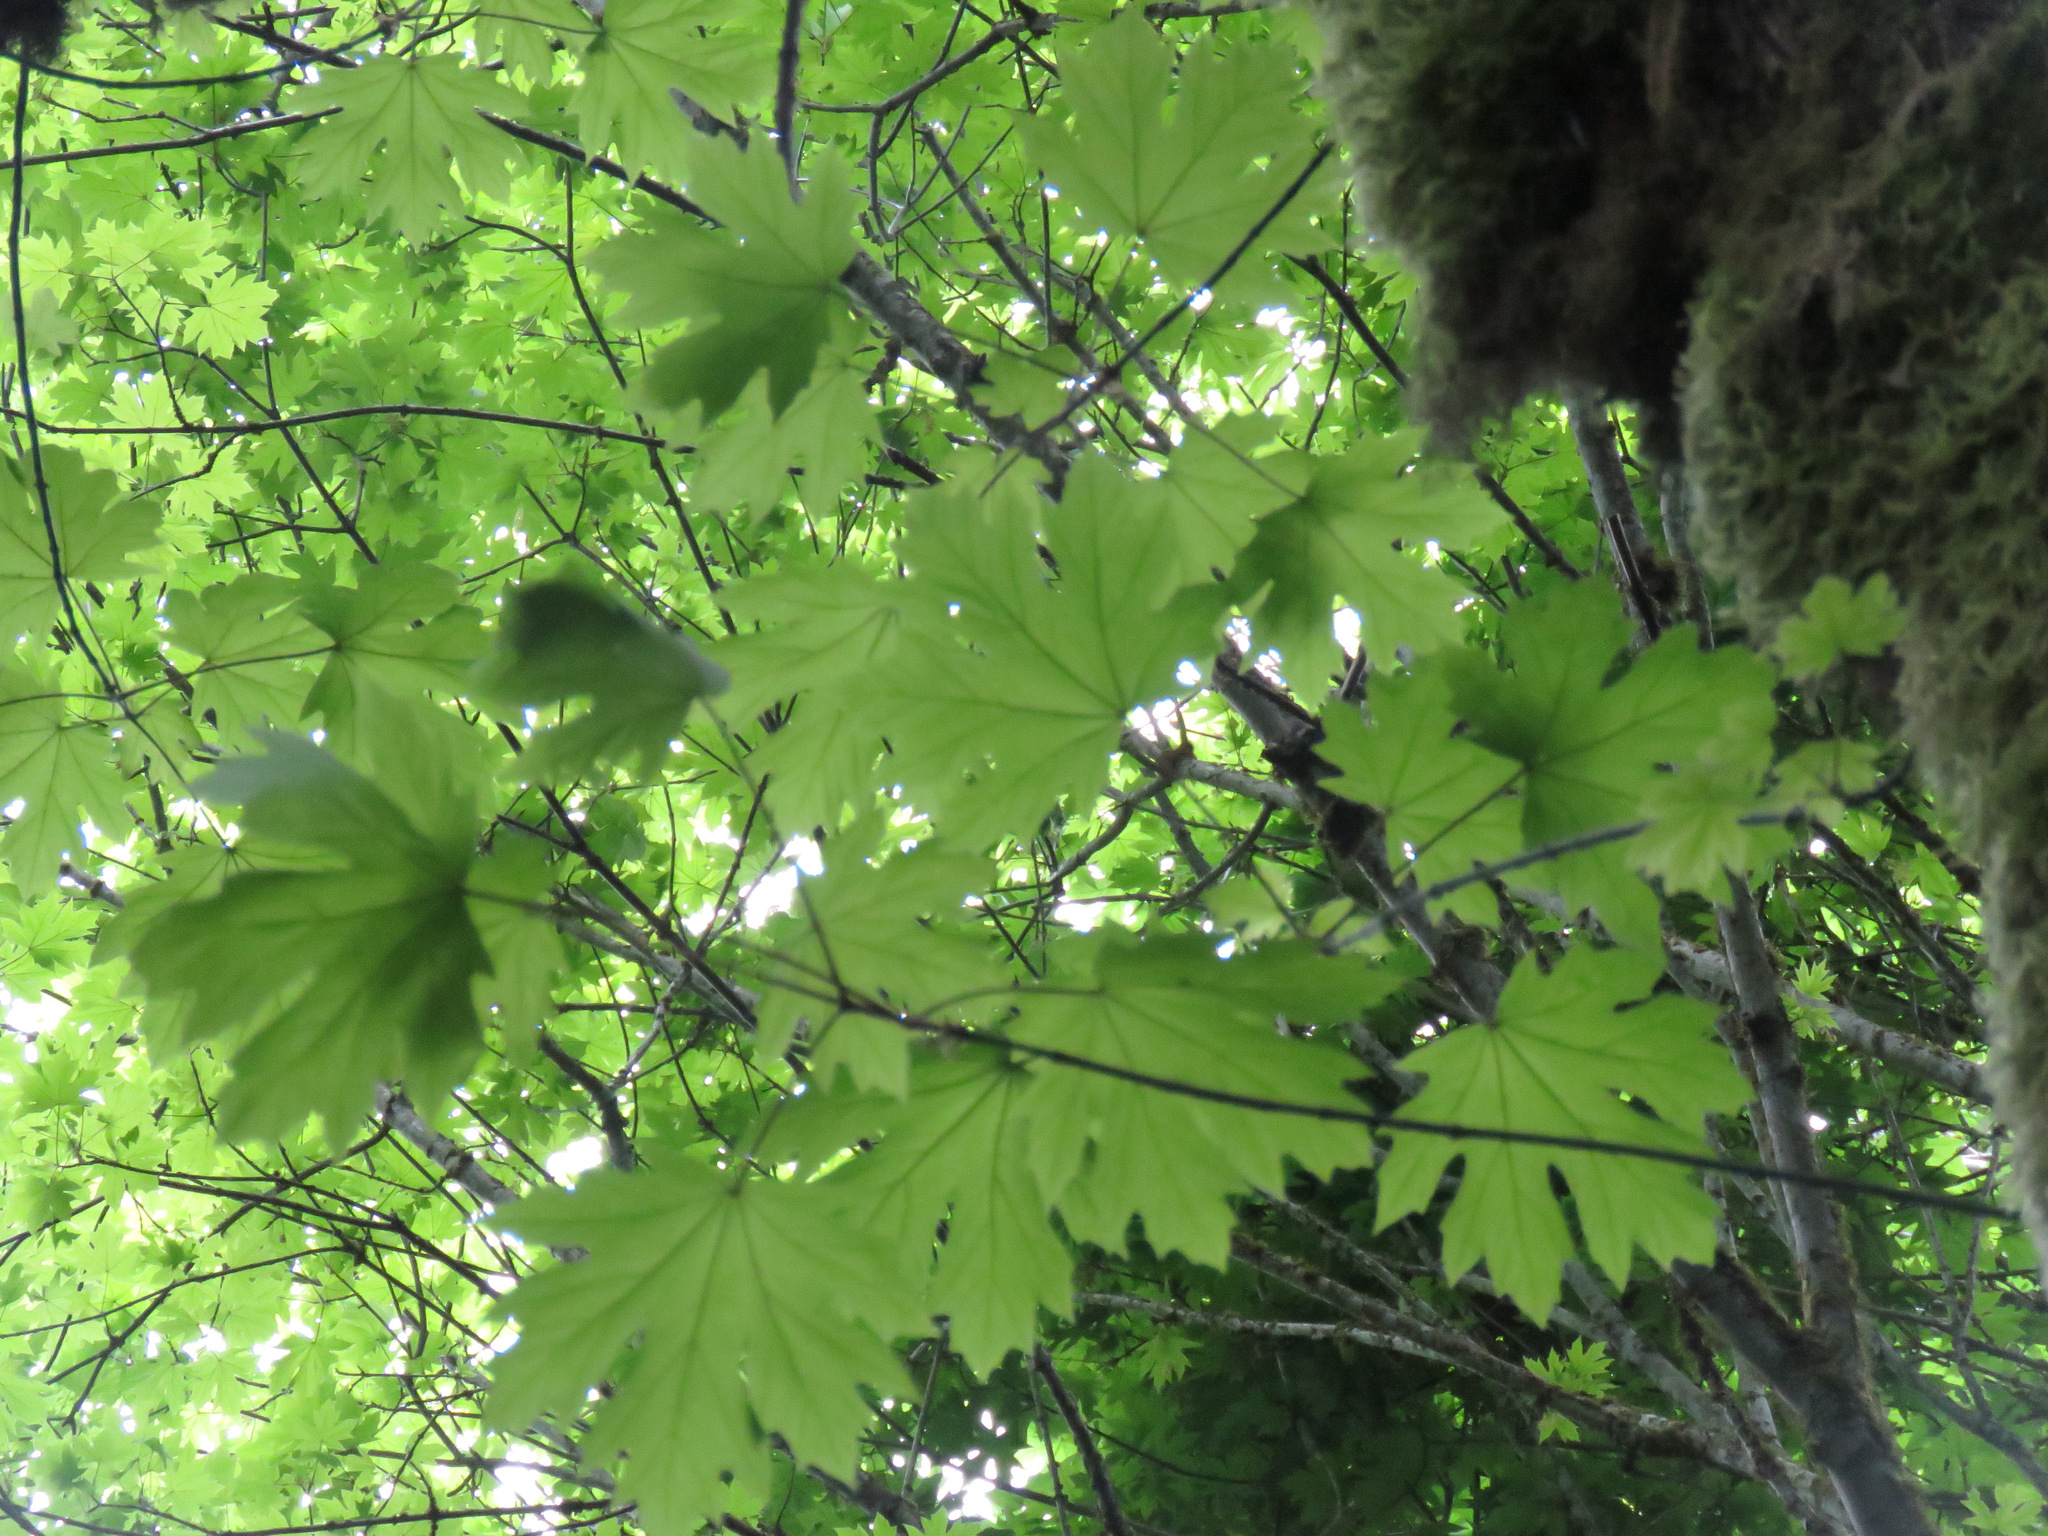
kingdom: Plantae
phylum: Tracheophyta
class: Magnoliopsida
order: Sapindales
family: Sapindaceae
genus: Acer
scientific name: Acer macrophyllum
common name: Oregon maple
